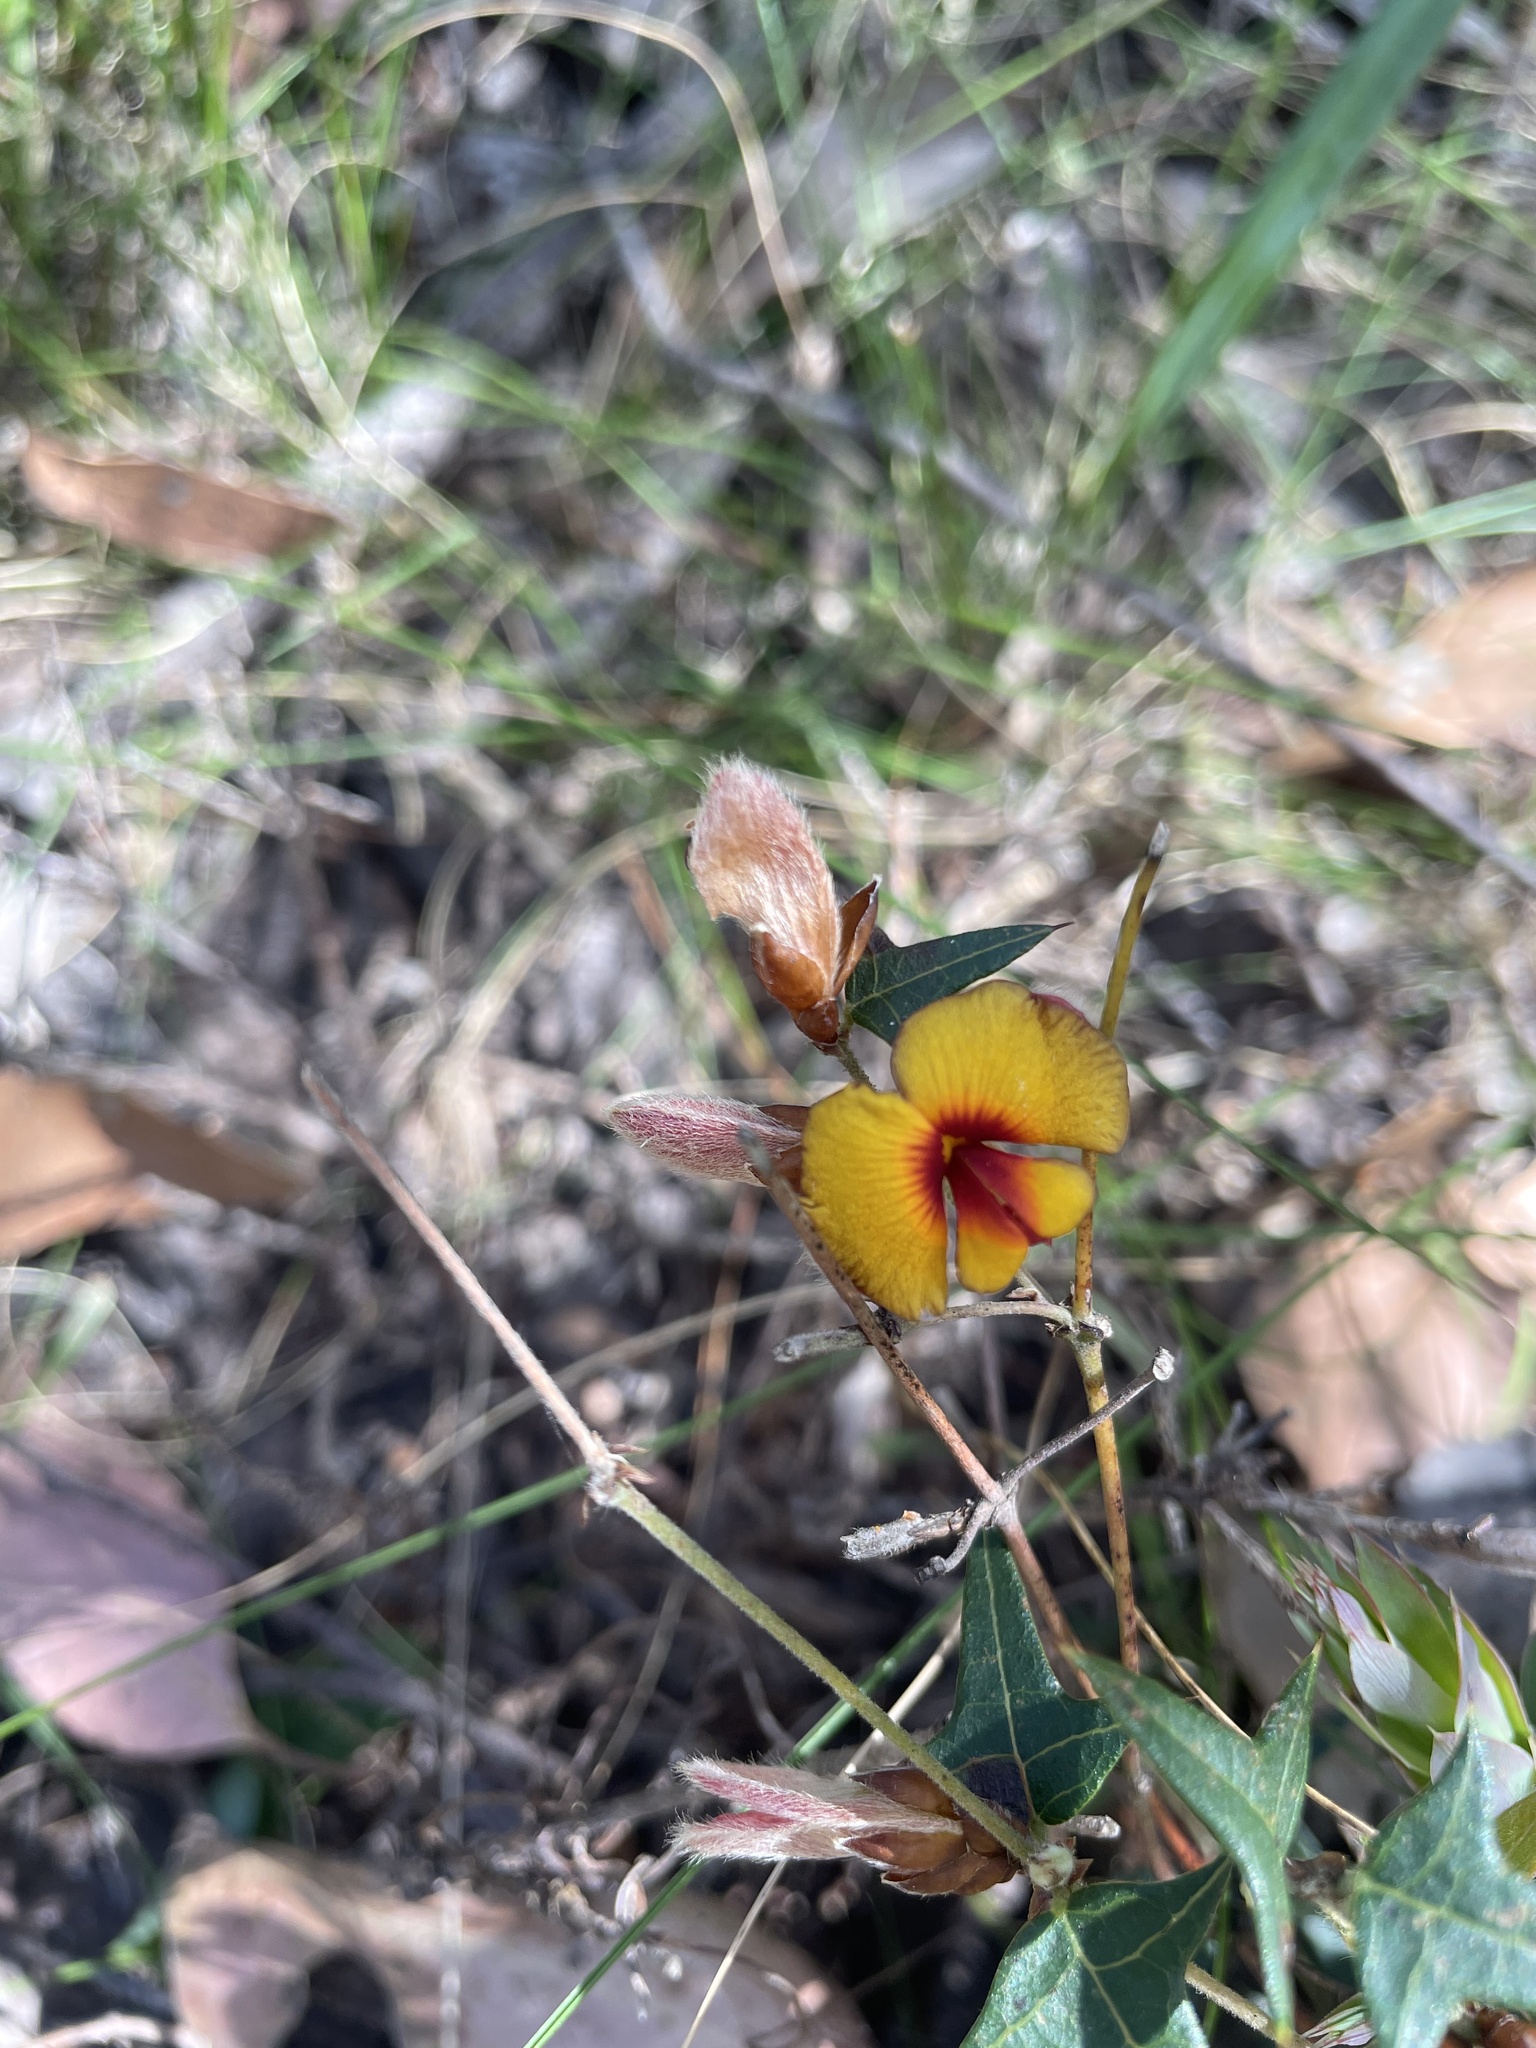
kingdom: Plantae
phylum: Tracheophyta
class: Magnoliopsida
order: Fabales
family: Fabaceae
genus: Platylobium
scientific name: Platylobium obtusangulum
